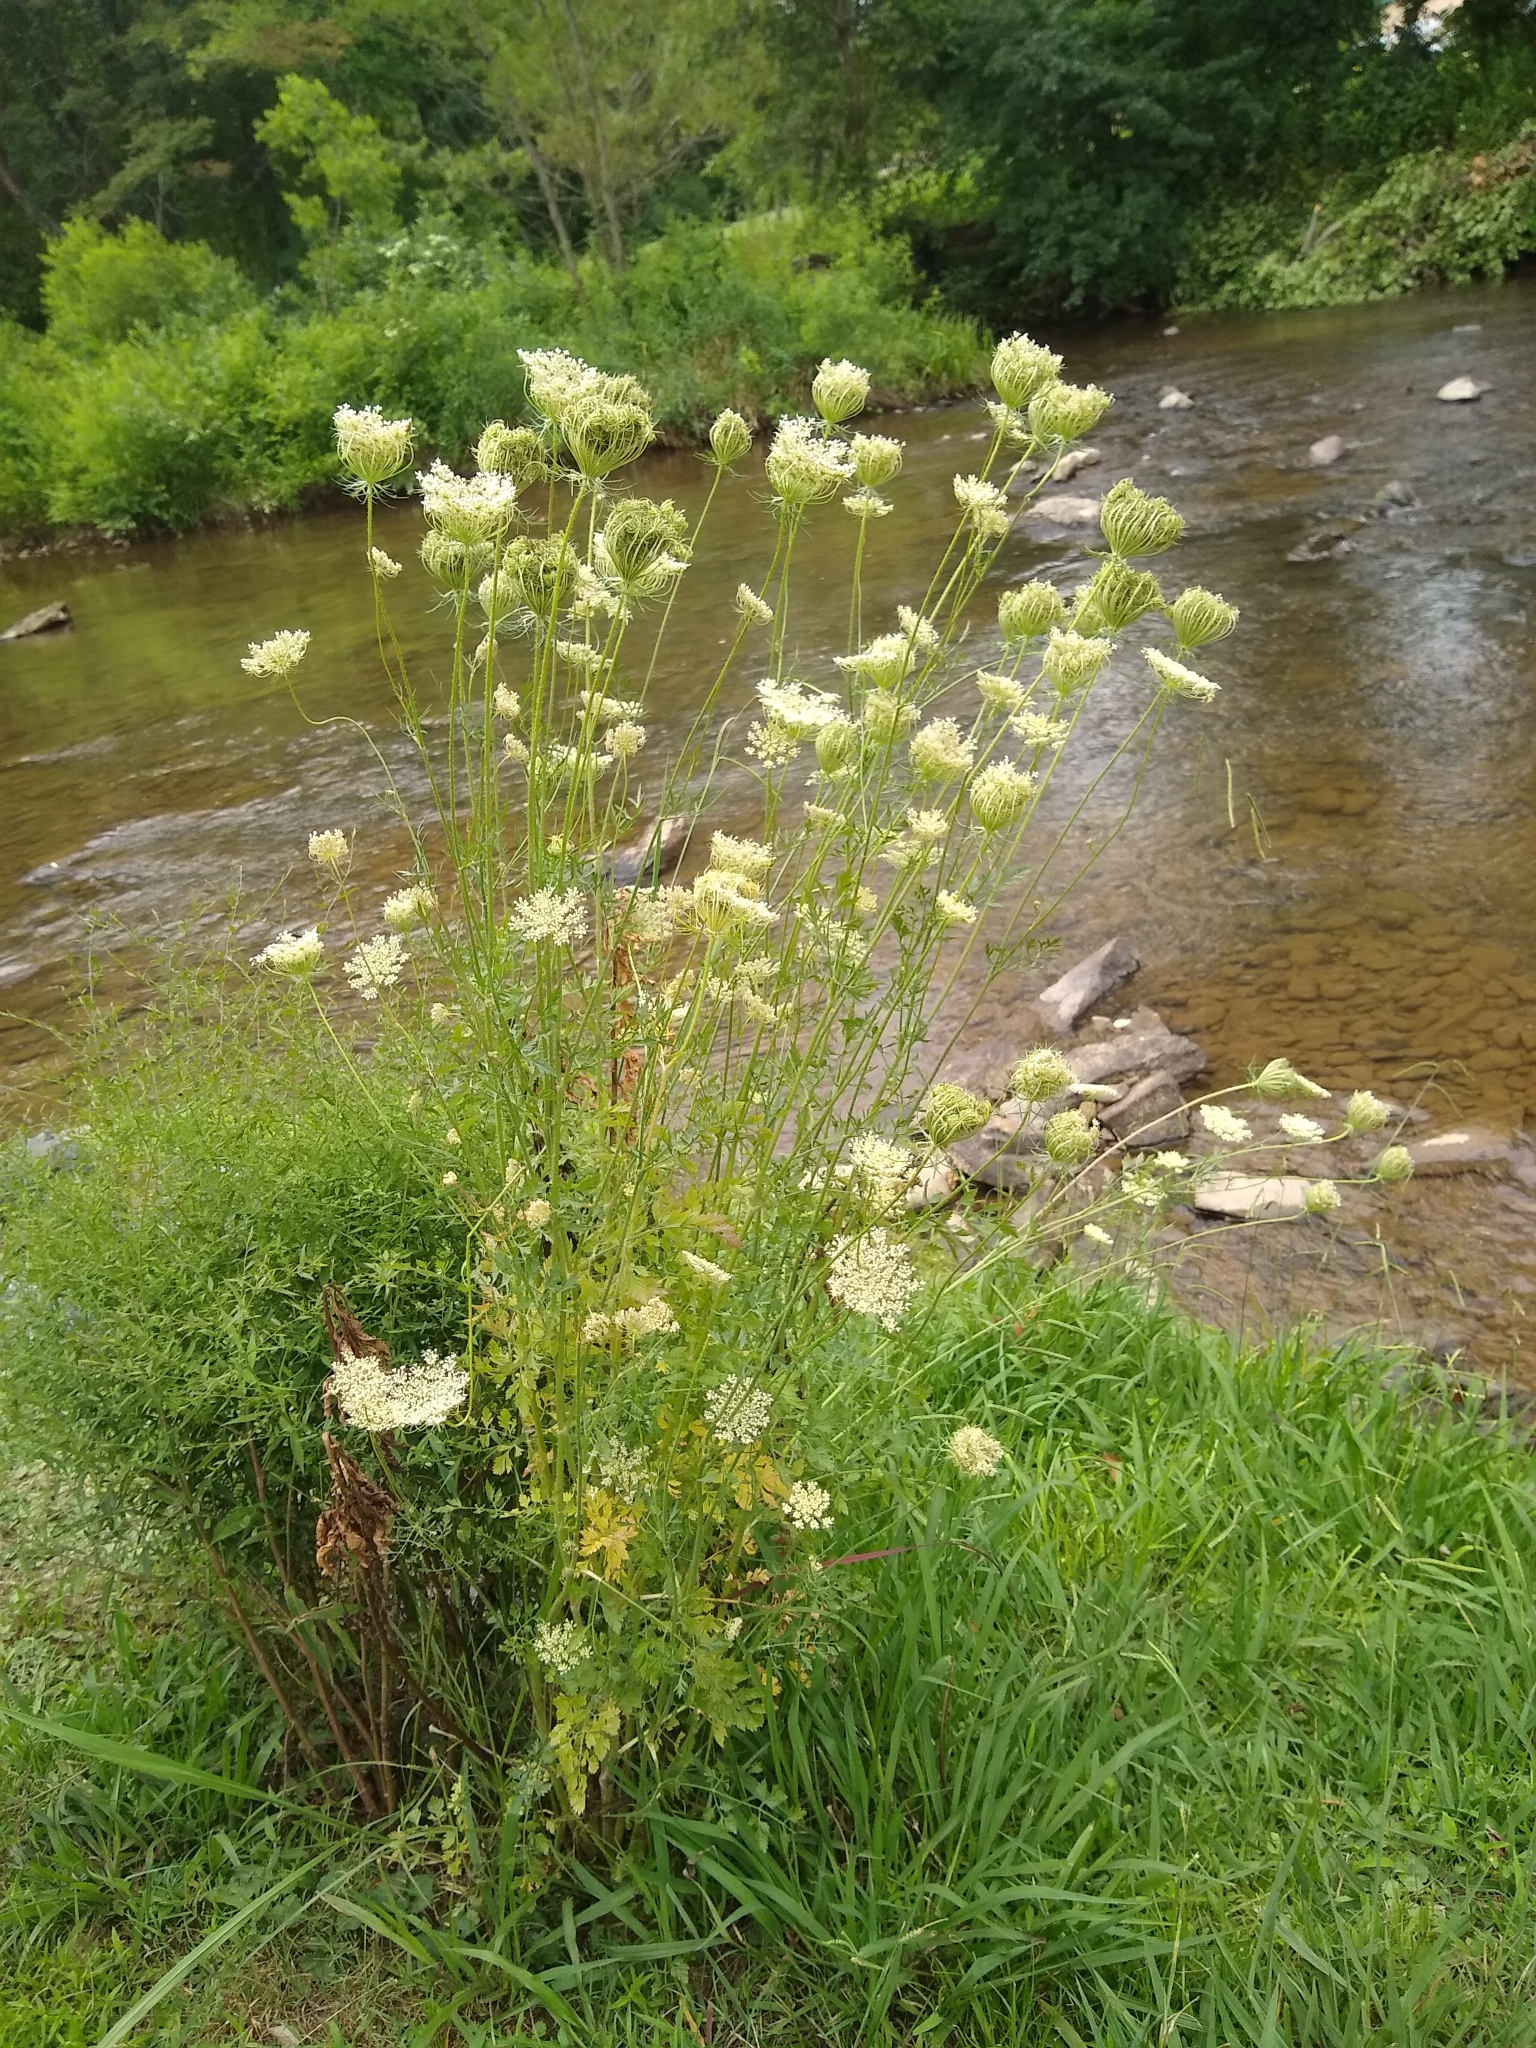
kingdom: Plantae
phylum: Tracheophyta
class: Magnoliopsida
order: Apiales
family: Apiaceae
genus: Daucus
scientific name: Daucus carota
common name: Wild carrot
